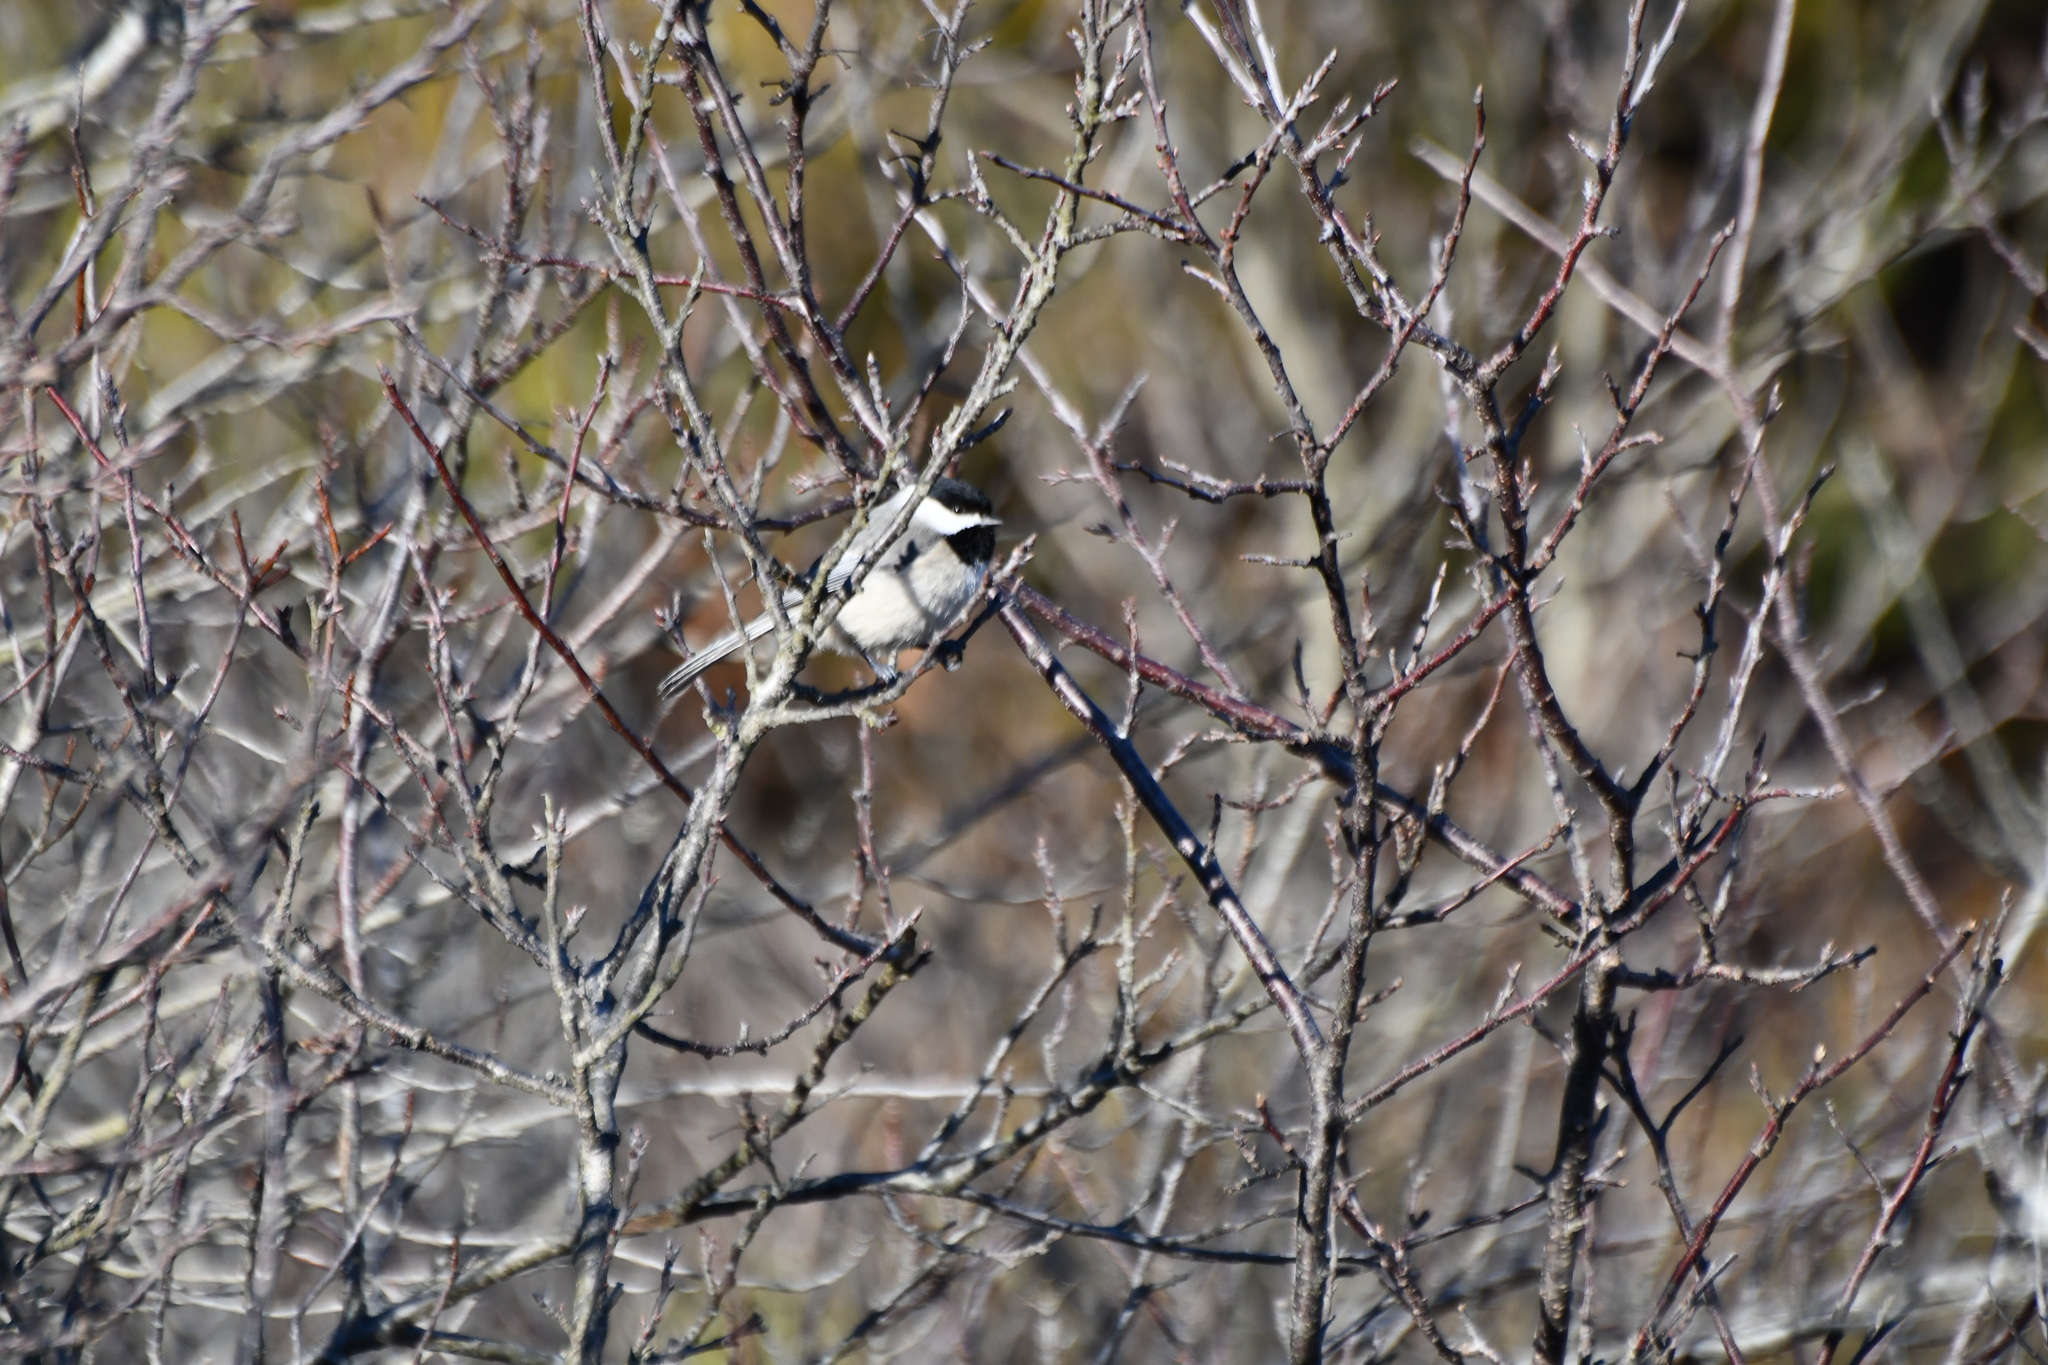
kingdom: Animalia
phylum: Chordata
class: Aves
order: Passeriformes
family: Paridae
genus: Poecile
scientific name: Poecile carolinensis
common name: Carolina chickadee
